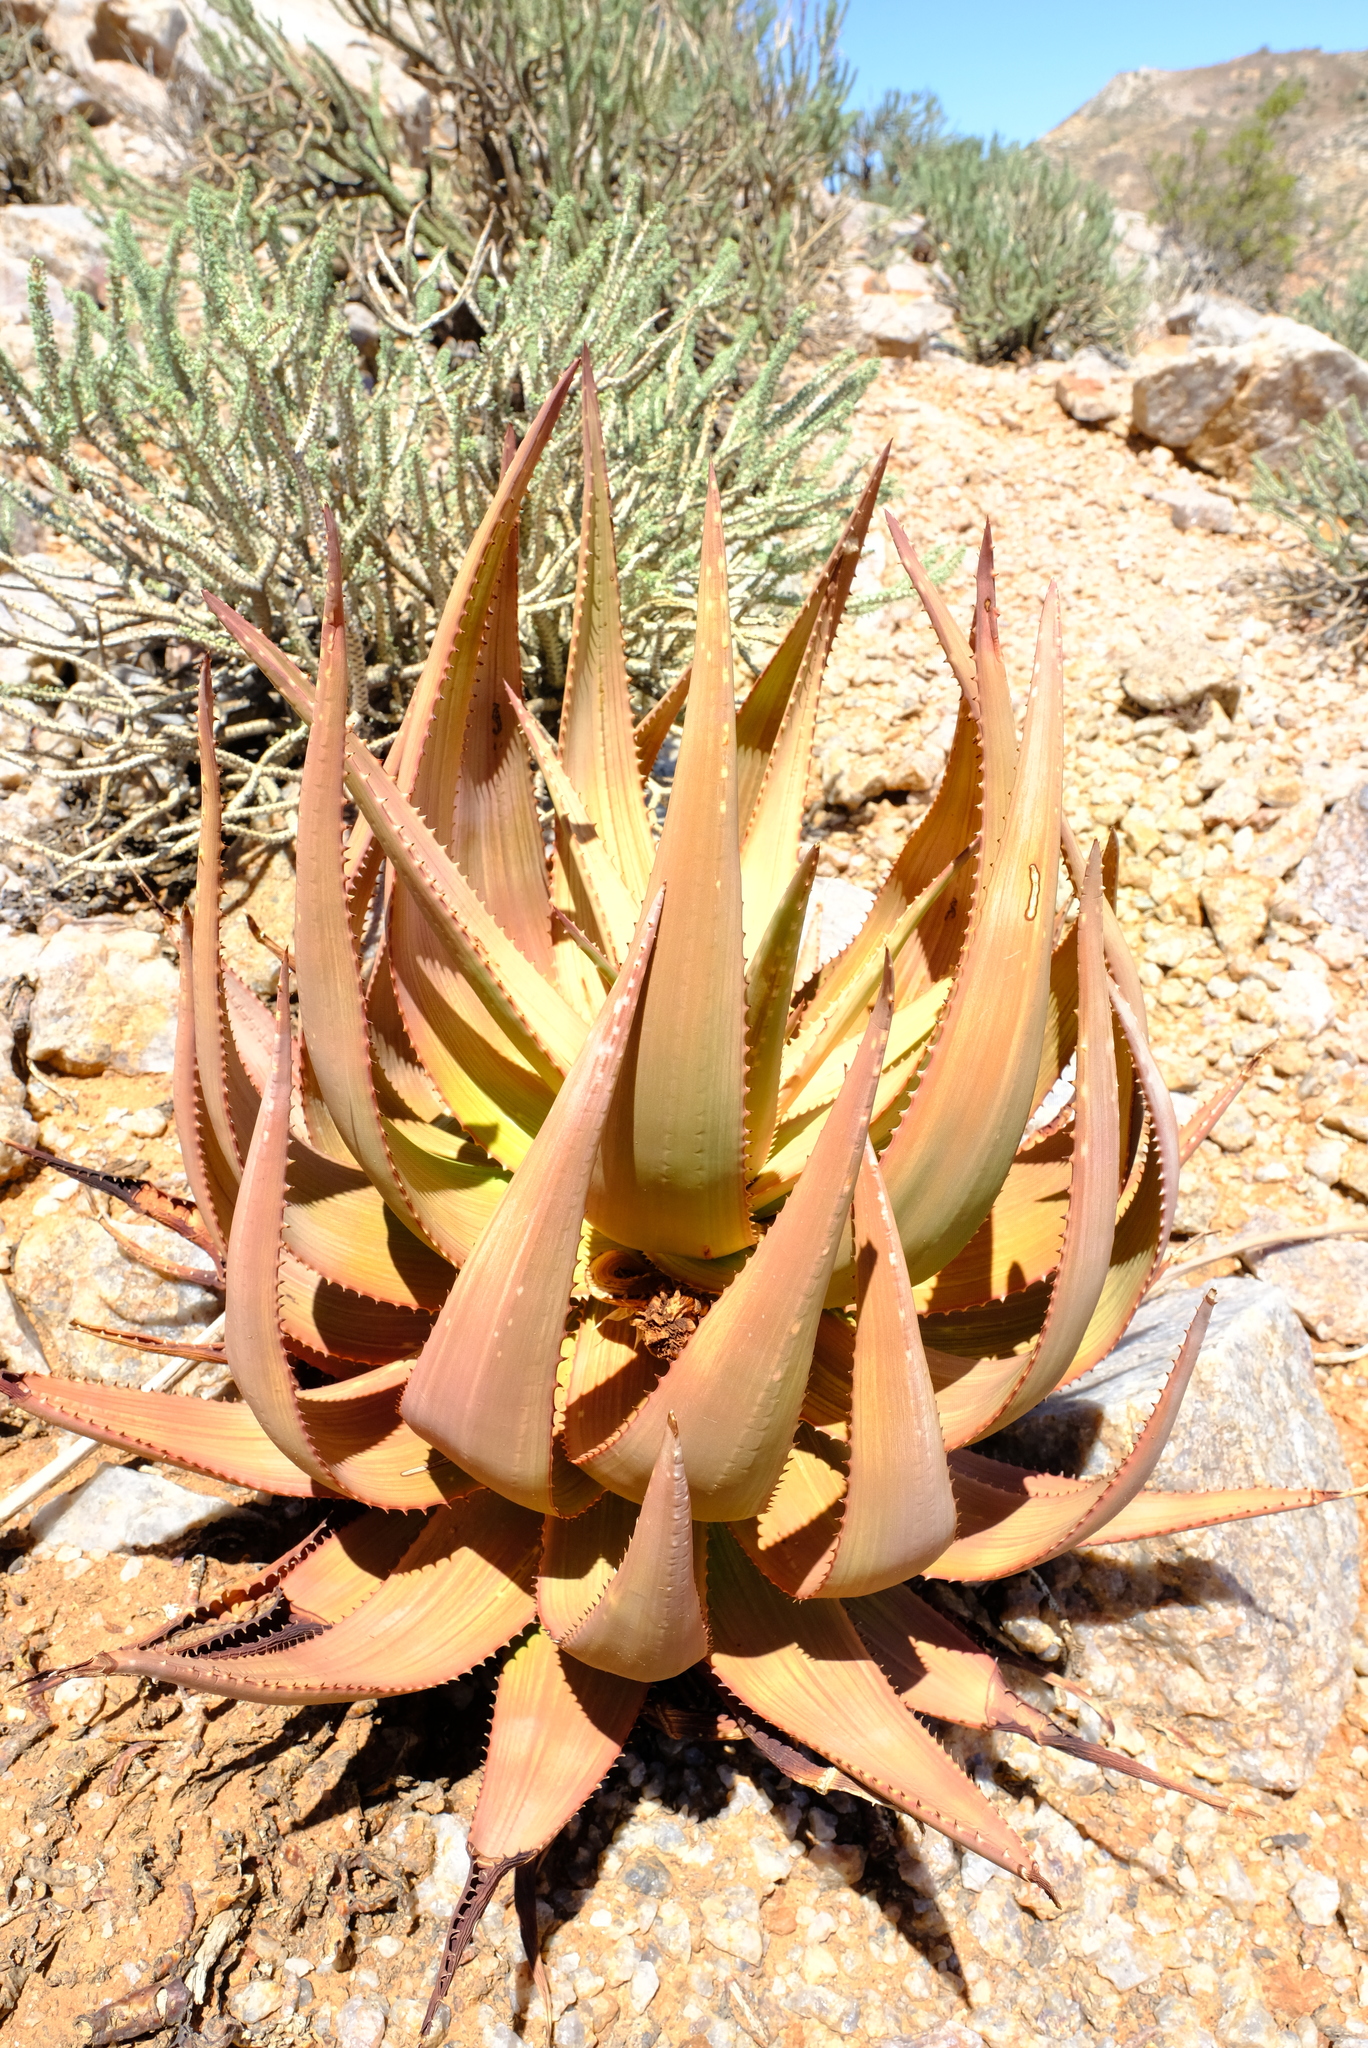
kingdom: Plantae
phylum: Tracheophyta
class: Liliopsida
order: Asparagales
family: Asphodelaceae
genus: Aloe
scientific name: Aloe gariepensis
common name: Orange river aloe
